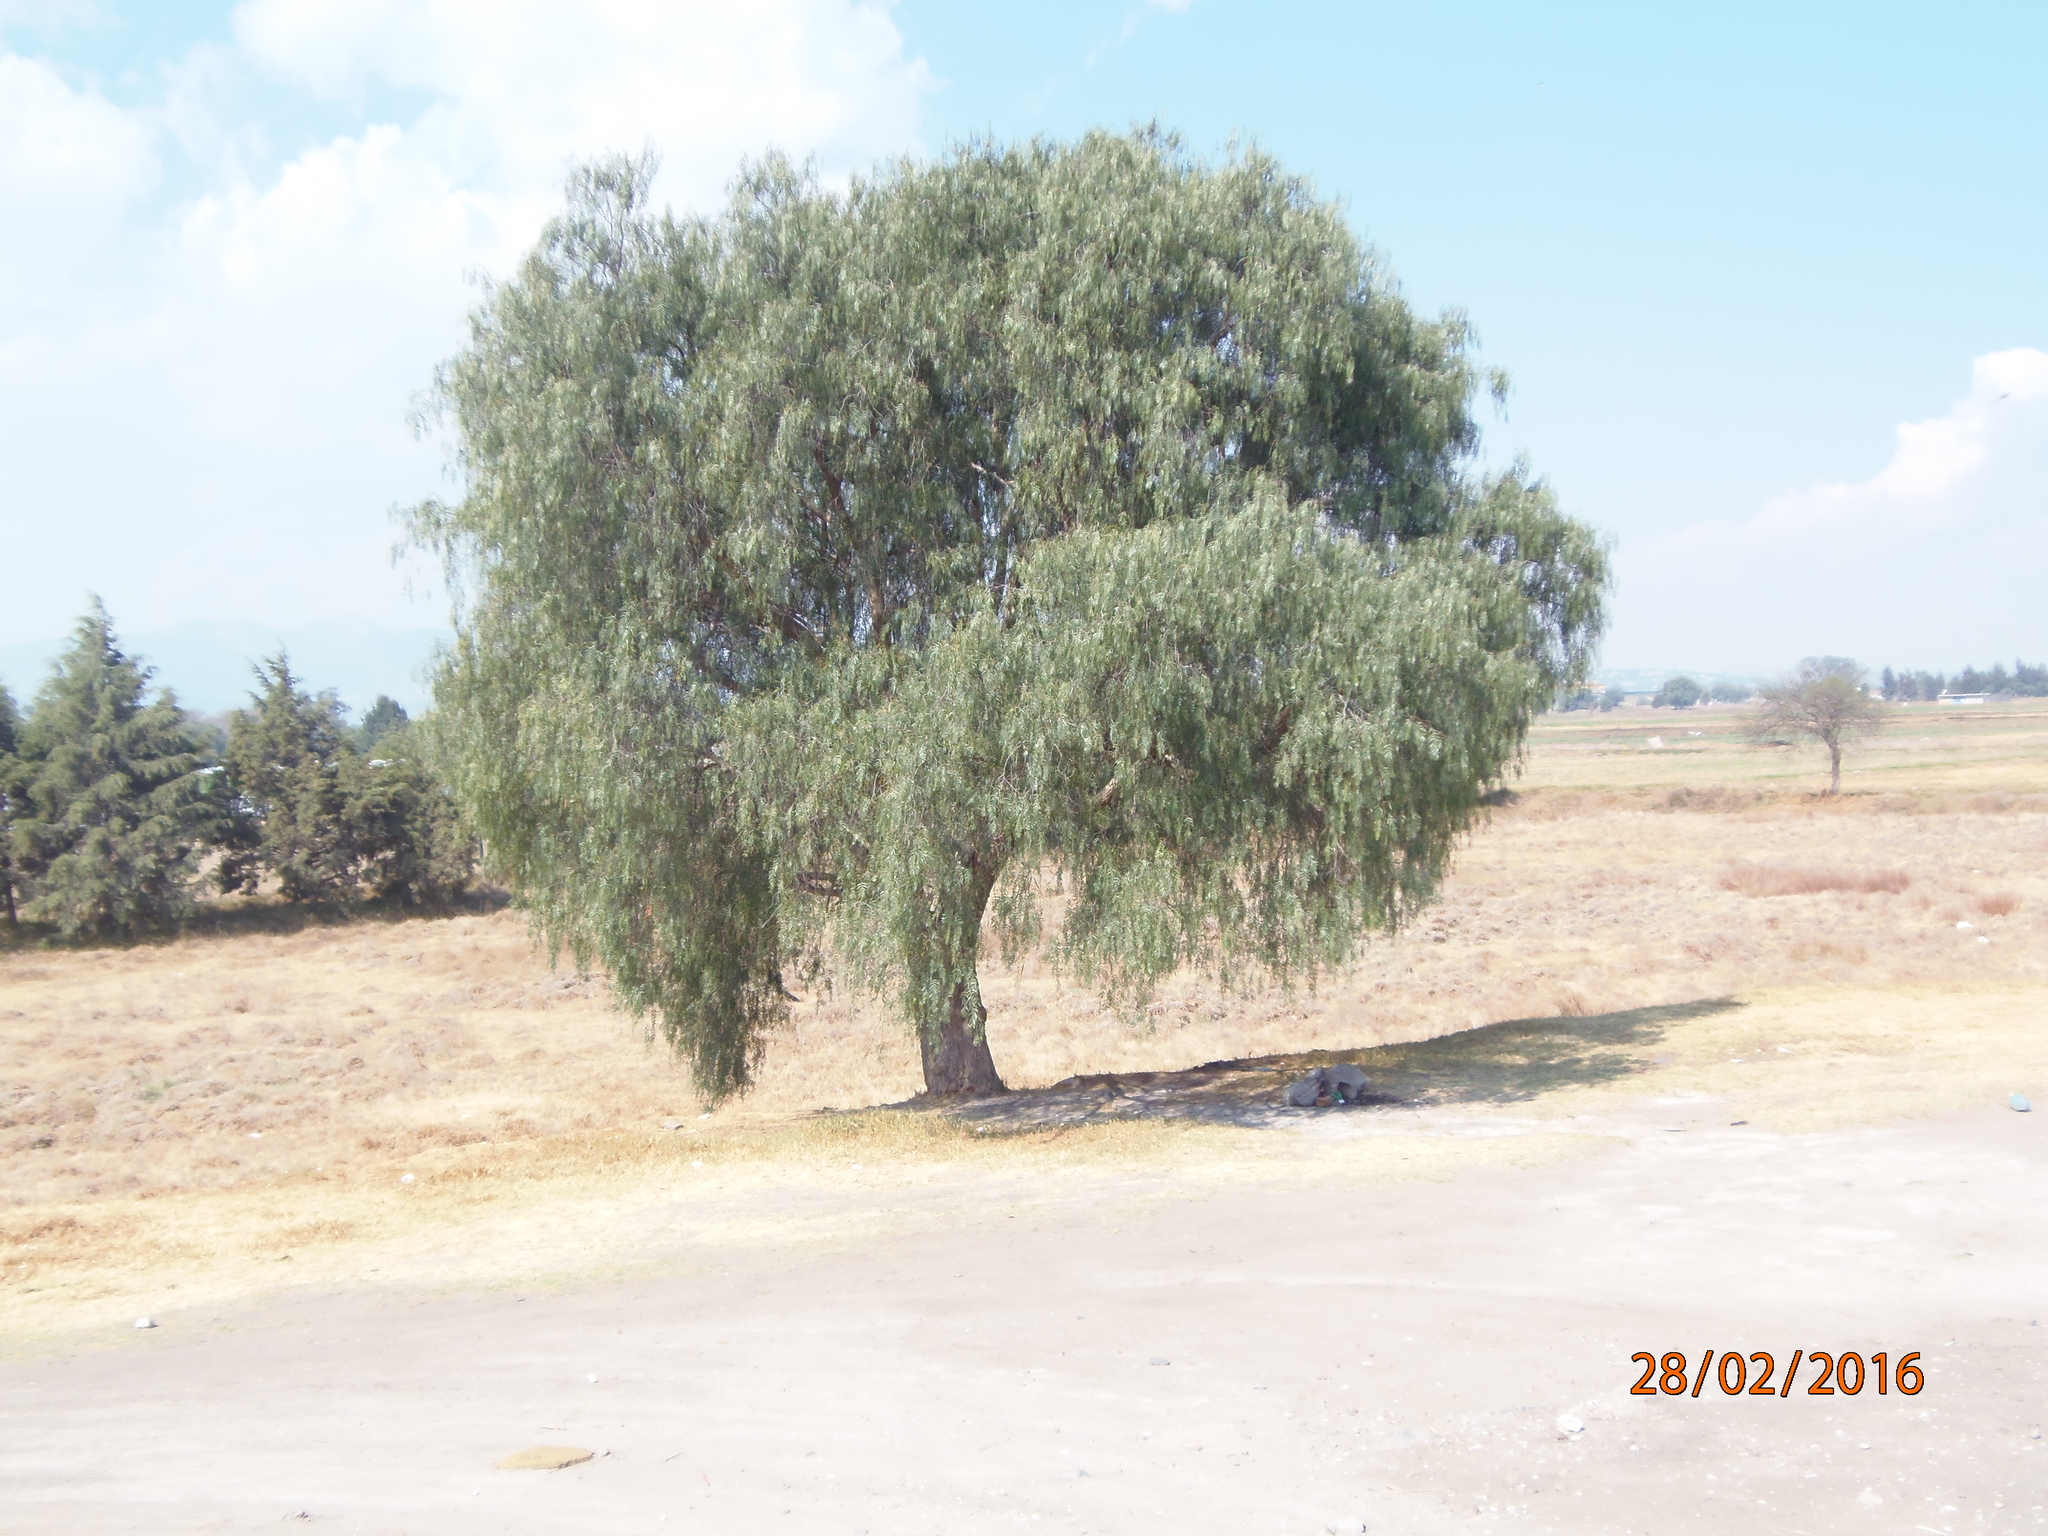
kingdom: Plantae
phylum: Tracheophyta
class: Magnoliopsida
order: Sapindales
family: Anacardiaceae
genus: Schinus
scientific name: Schinus molle
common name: Peruvian peppertree
